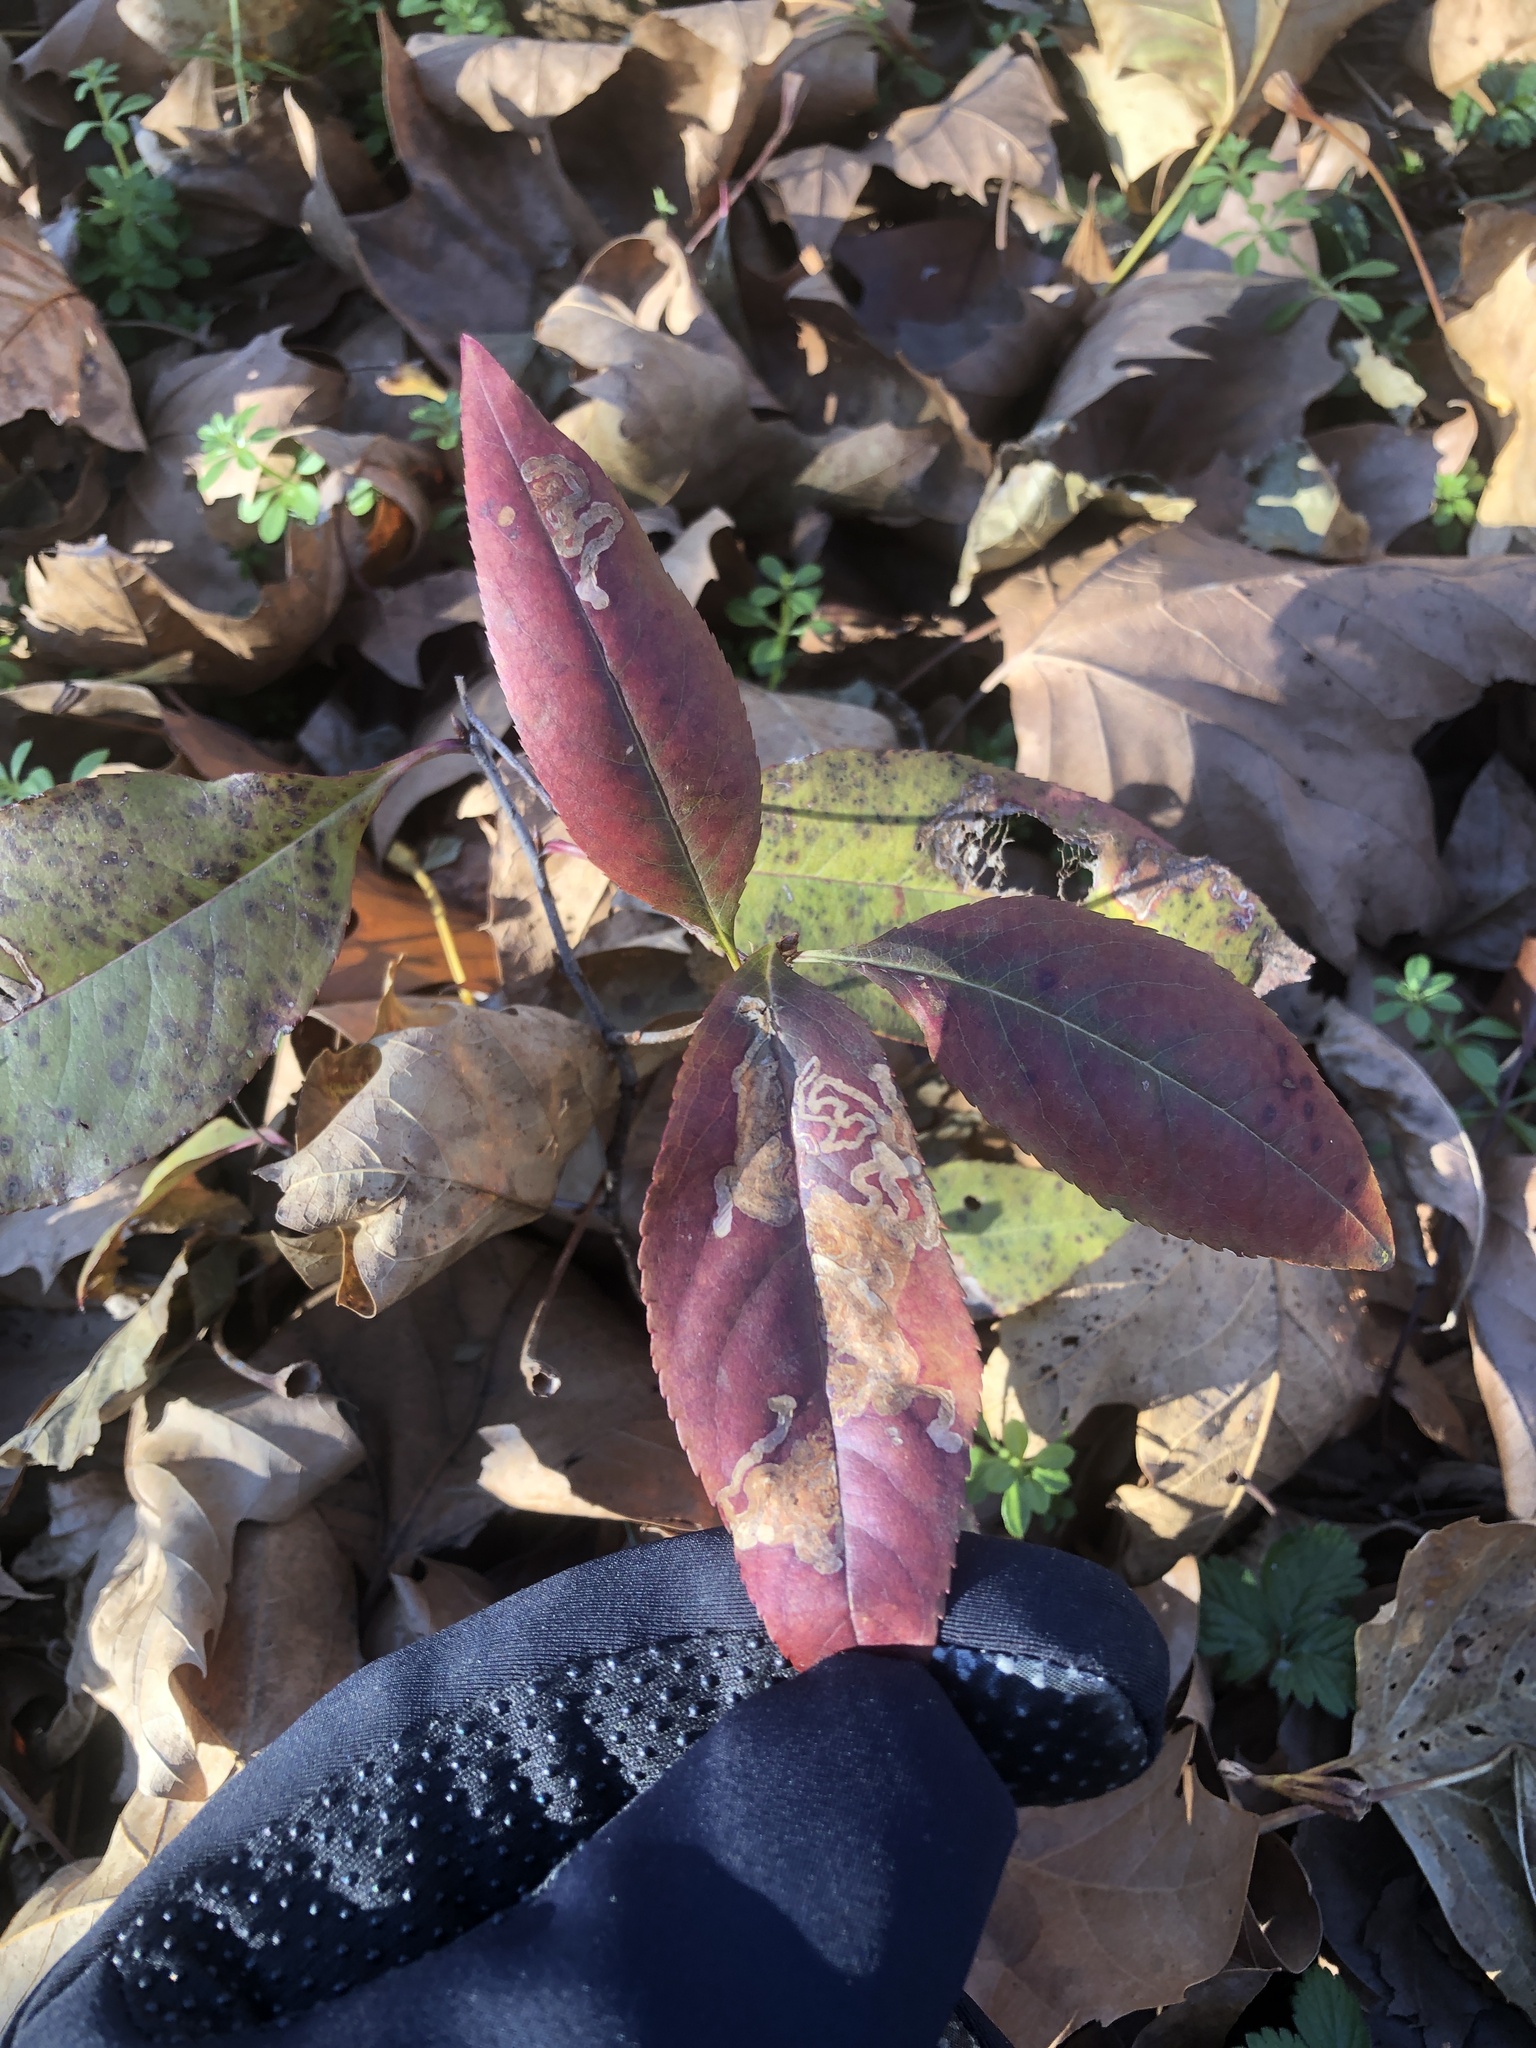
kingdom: Animalia
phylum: Arthropoda
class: Insecta
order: Lepidoptera
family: Nepticulidae
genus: Stigmella
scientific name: Stigmella prunifoliella
